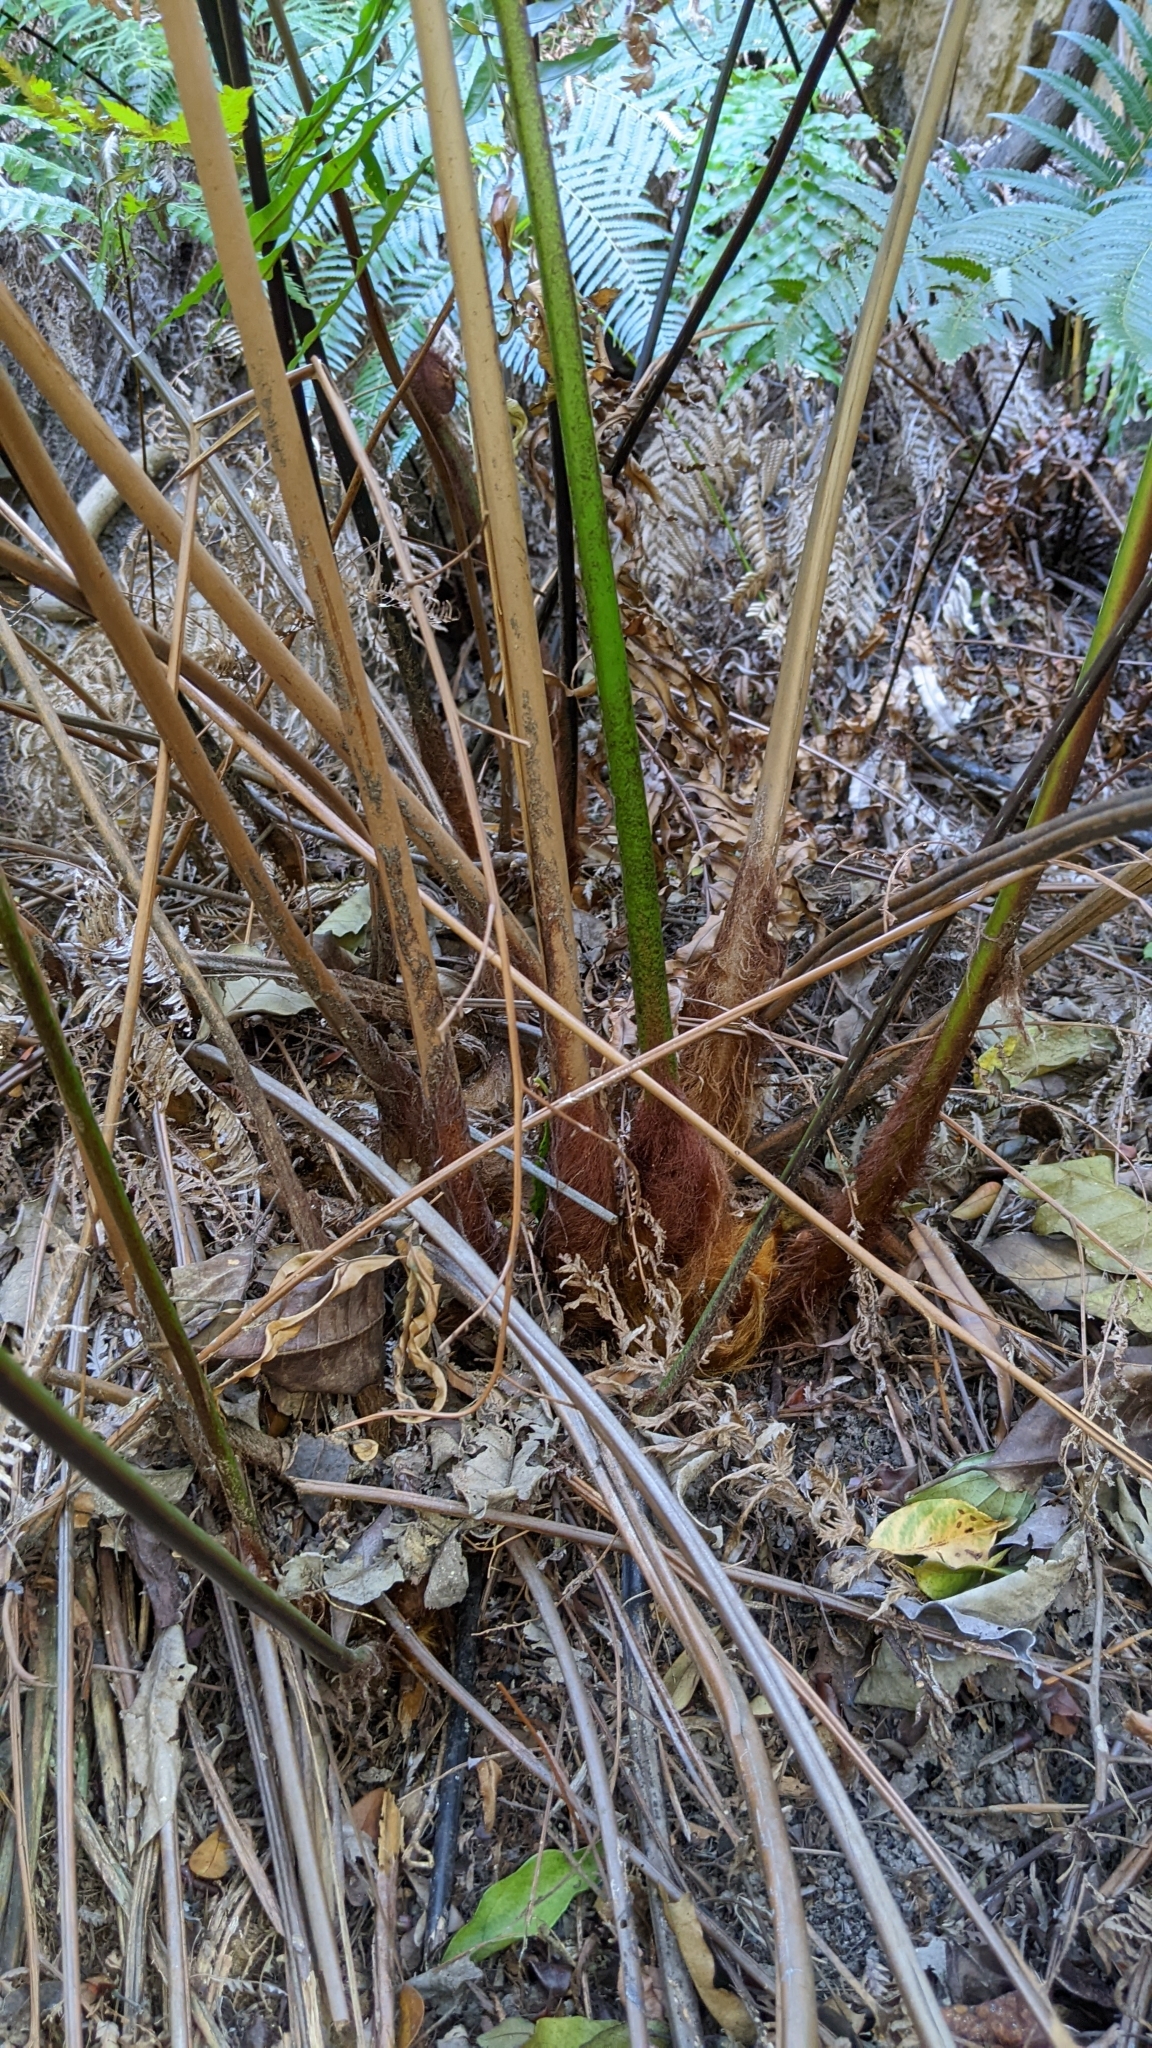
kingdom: Plantae
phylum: Tracheophyta
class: Polypodiopsida
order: Cyatheales
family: Cibotiaceae
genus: Cibotium
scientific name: Cibotium taiwanense
